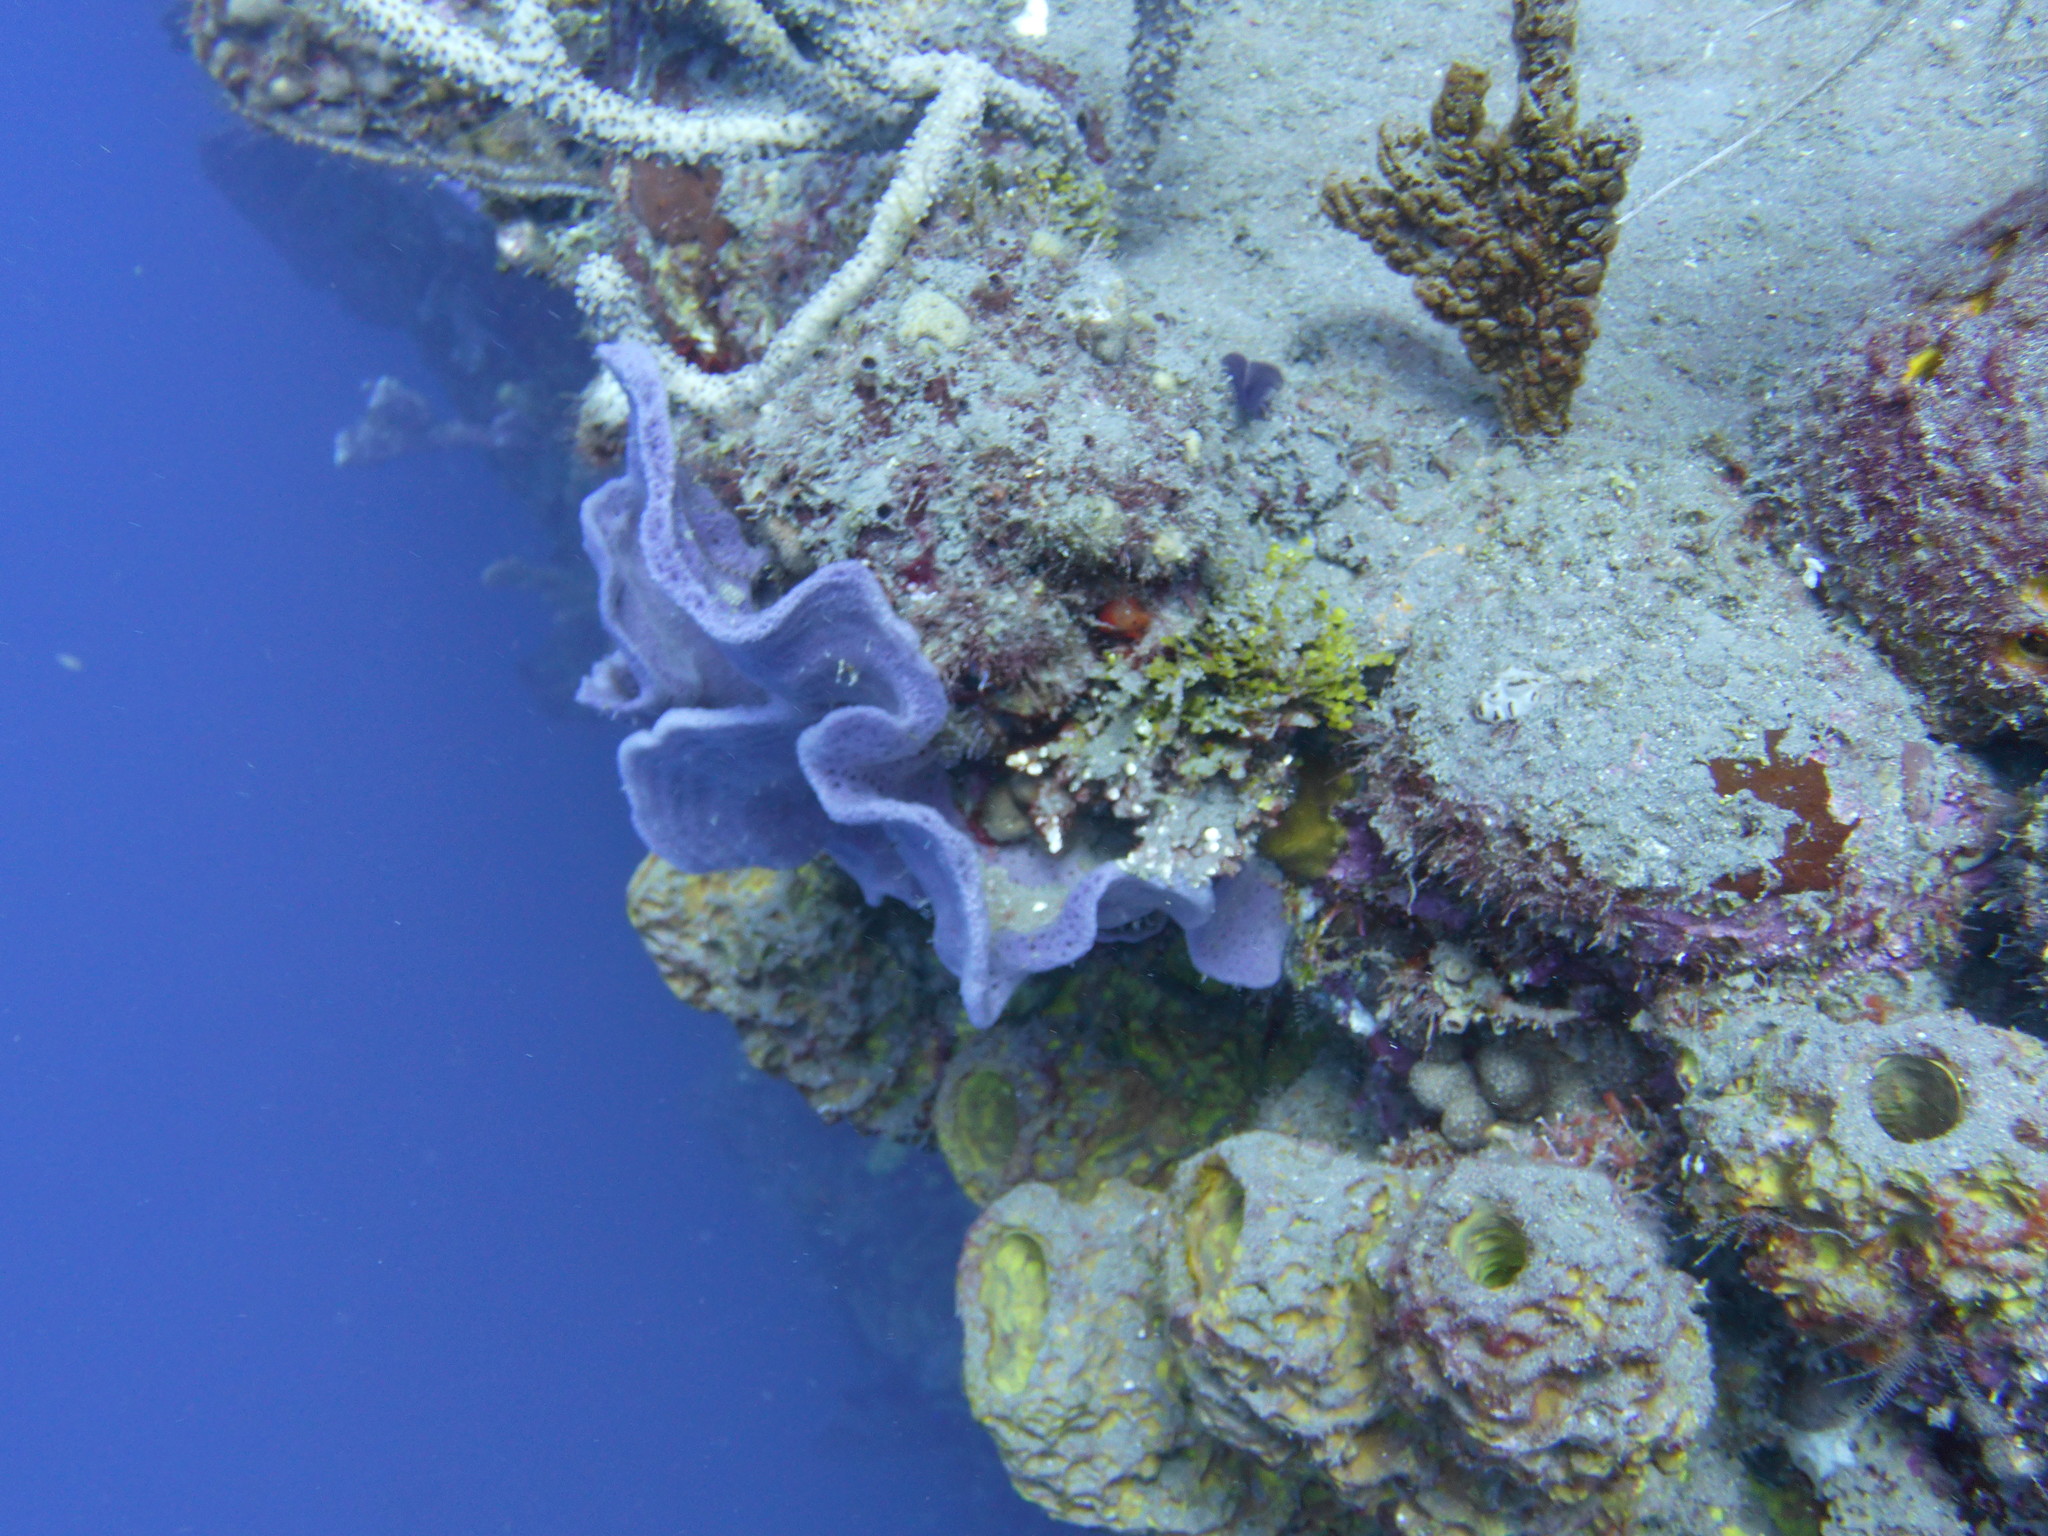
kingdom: Animalia
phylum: Porifera
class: Demospongiae
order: Haplosclerida
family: Niphatidae
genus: Amphimedon
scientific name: Amphimedon caribica
